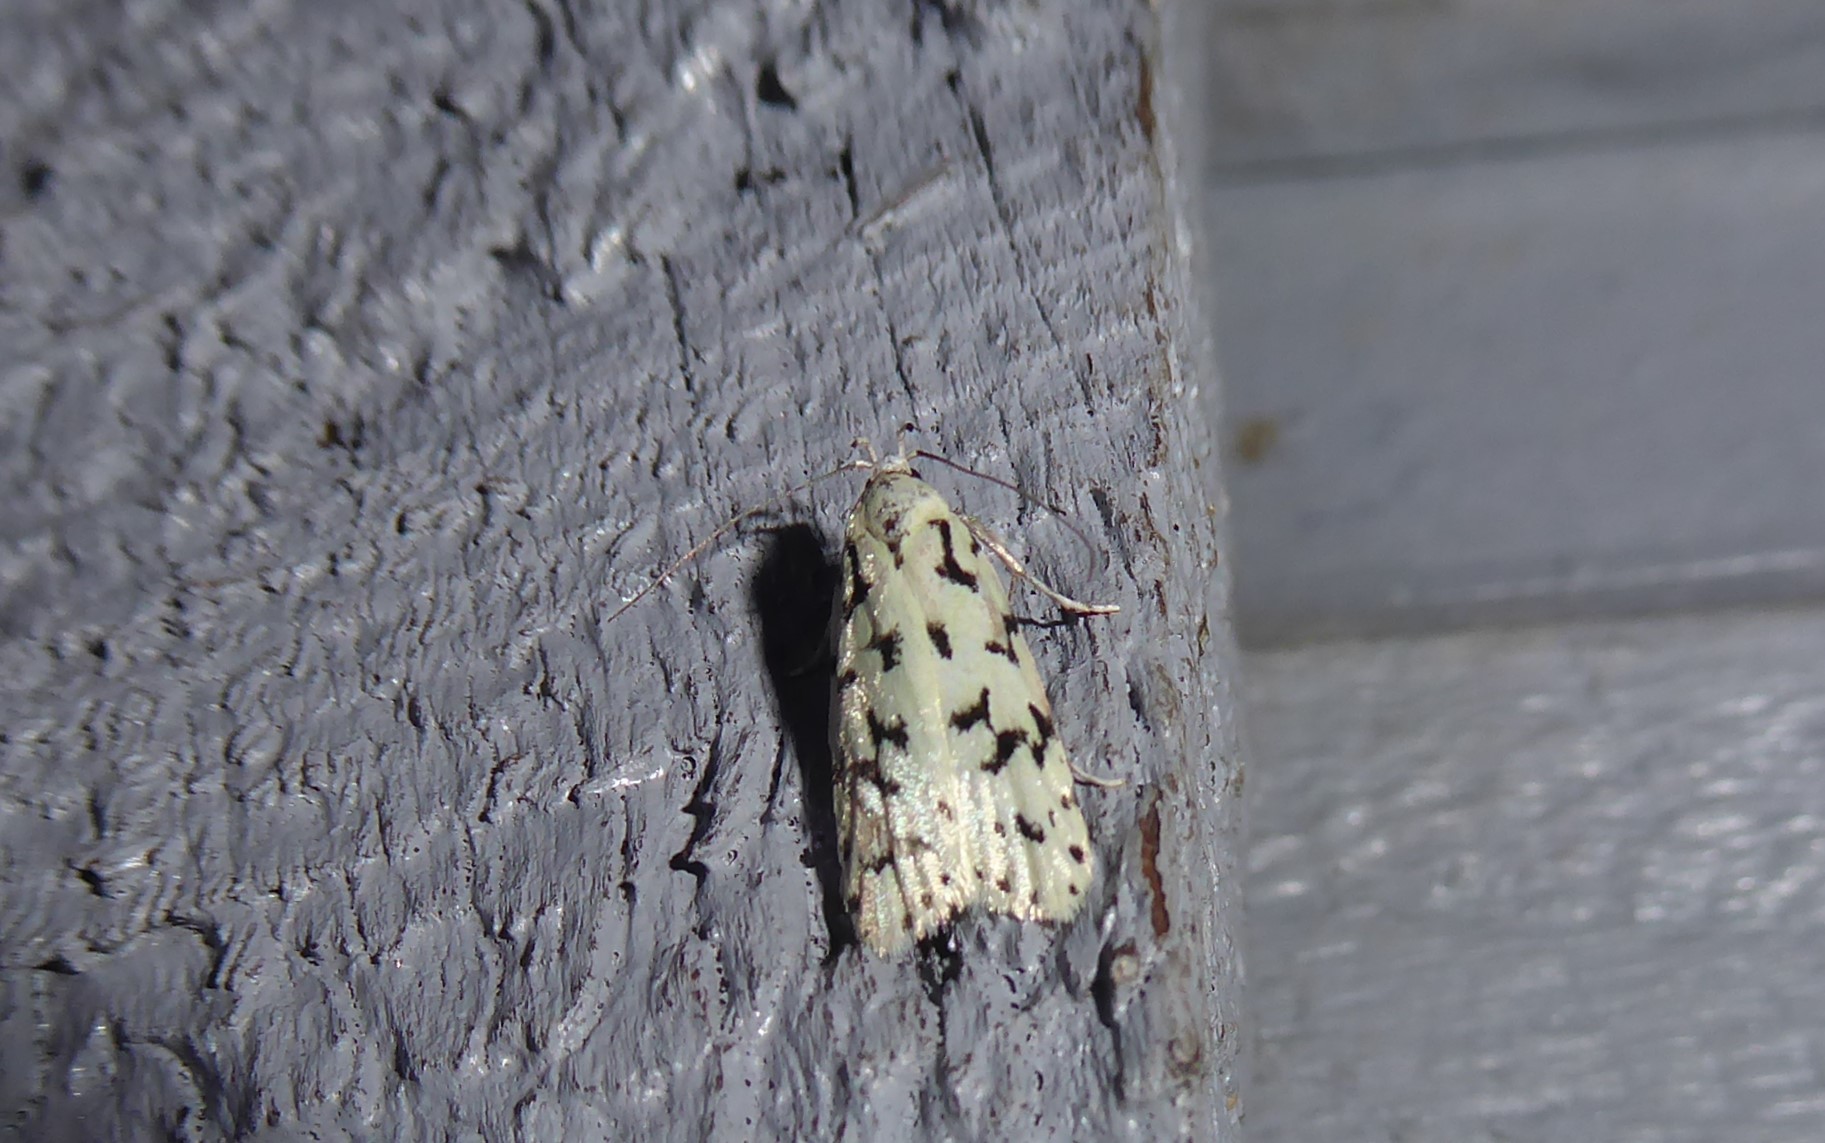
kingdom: Animalia
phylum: Arthropoda
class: Insecta
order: Lepidoptera
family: Oecophoridae
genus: Izatha
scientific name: Izatha huttoni
